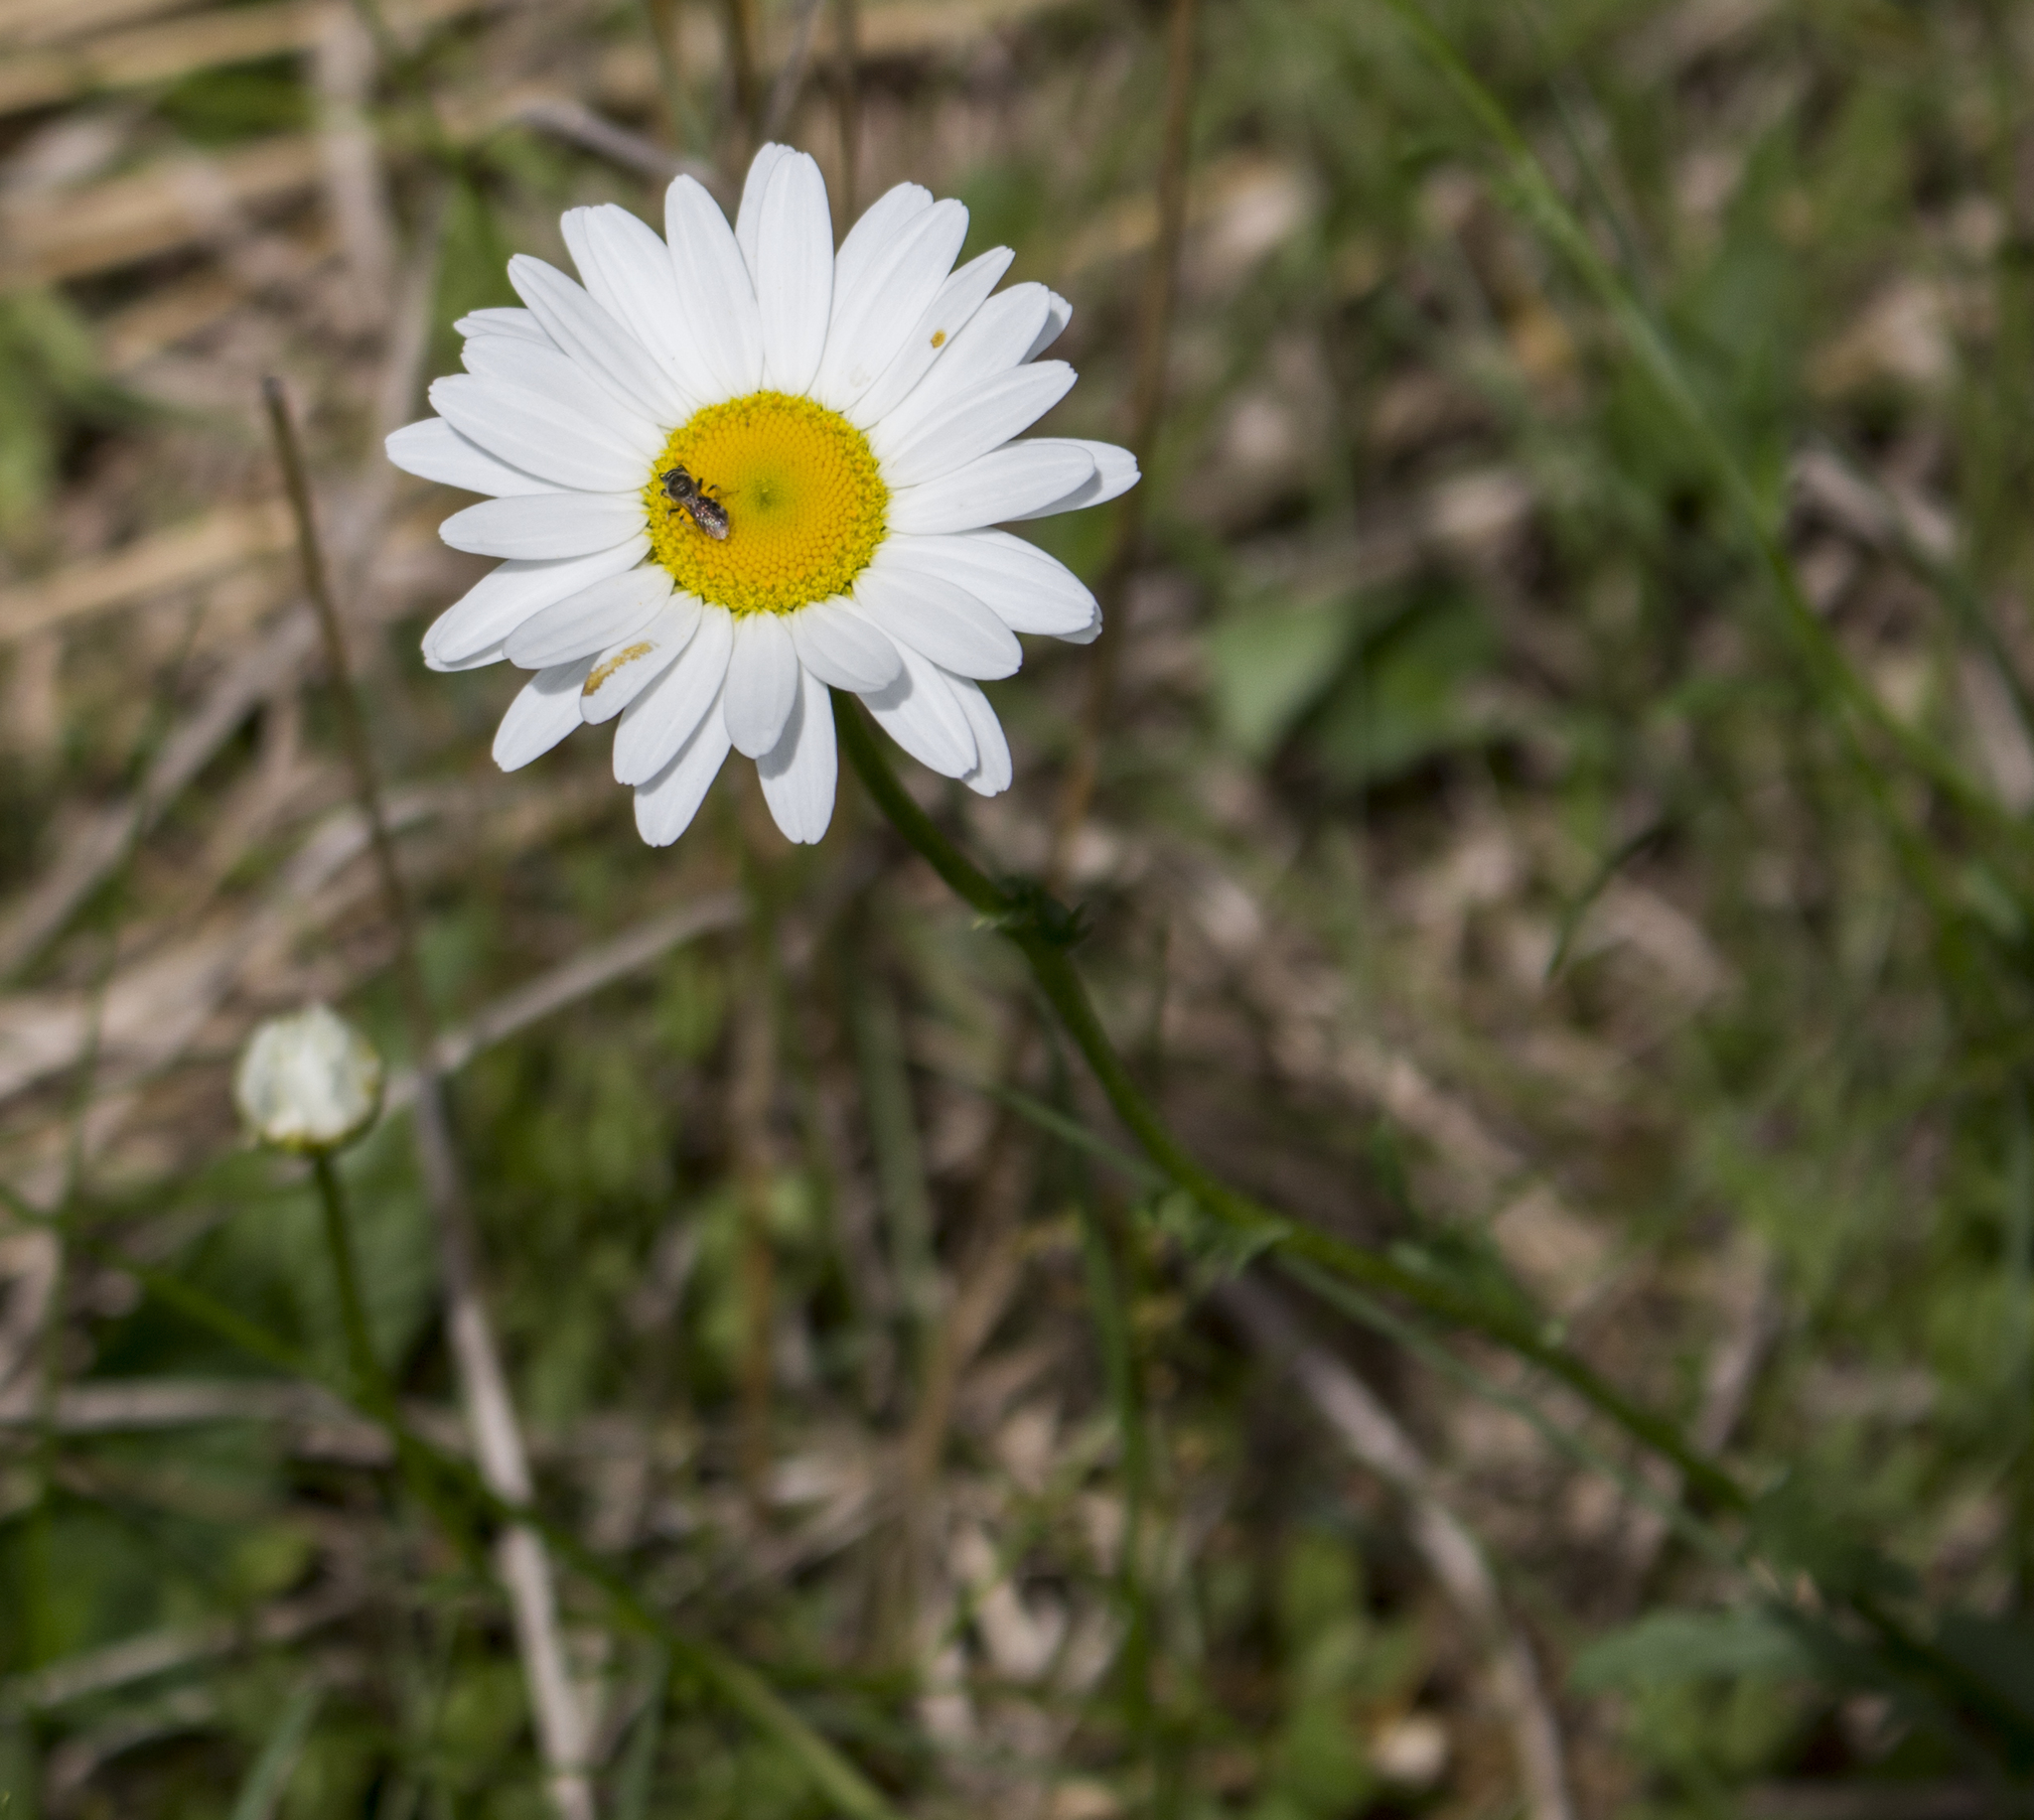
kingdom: Plantae
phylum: Tracheophyta
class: Magnoliopsida
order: Asterales
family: Asteraceae
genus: Leucanthemum
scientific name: Leucanthemum vulgare
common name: Oxeye daisy
